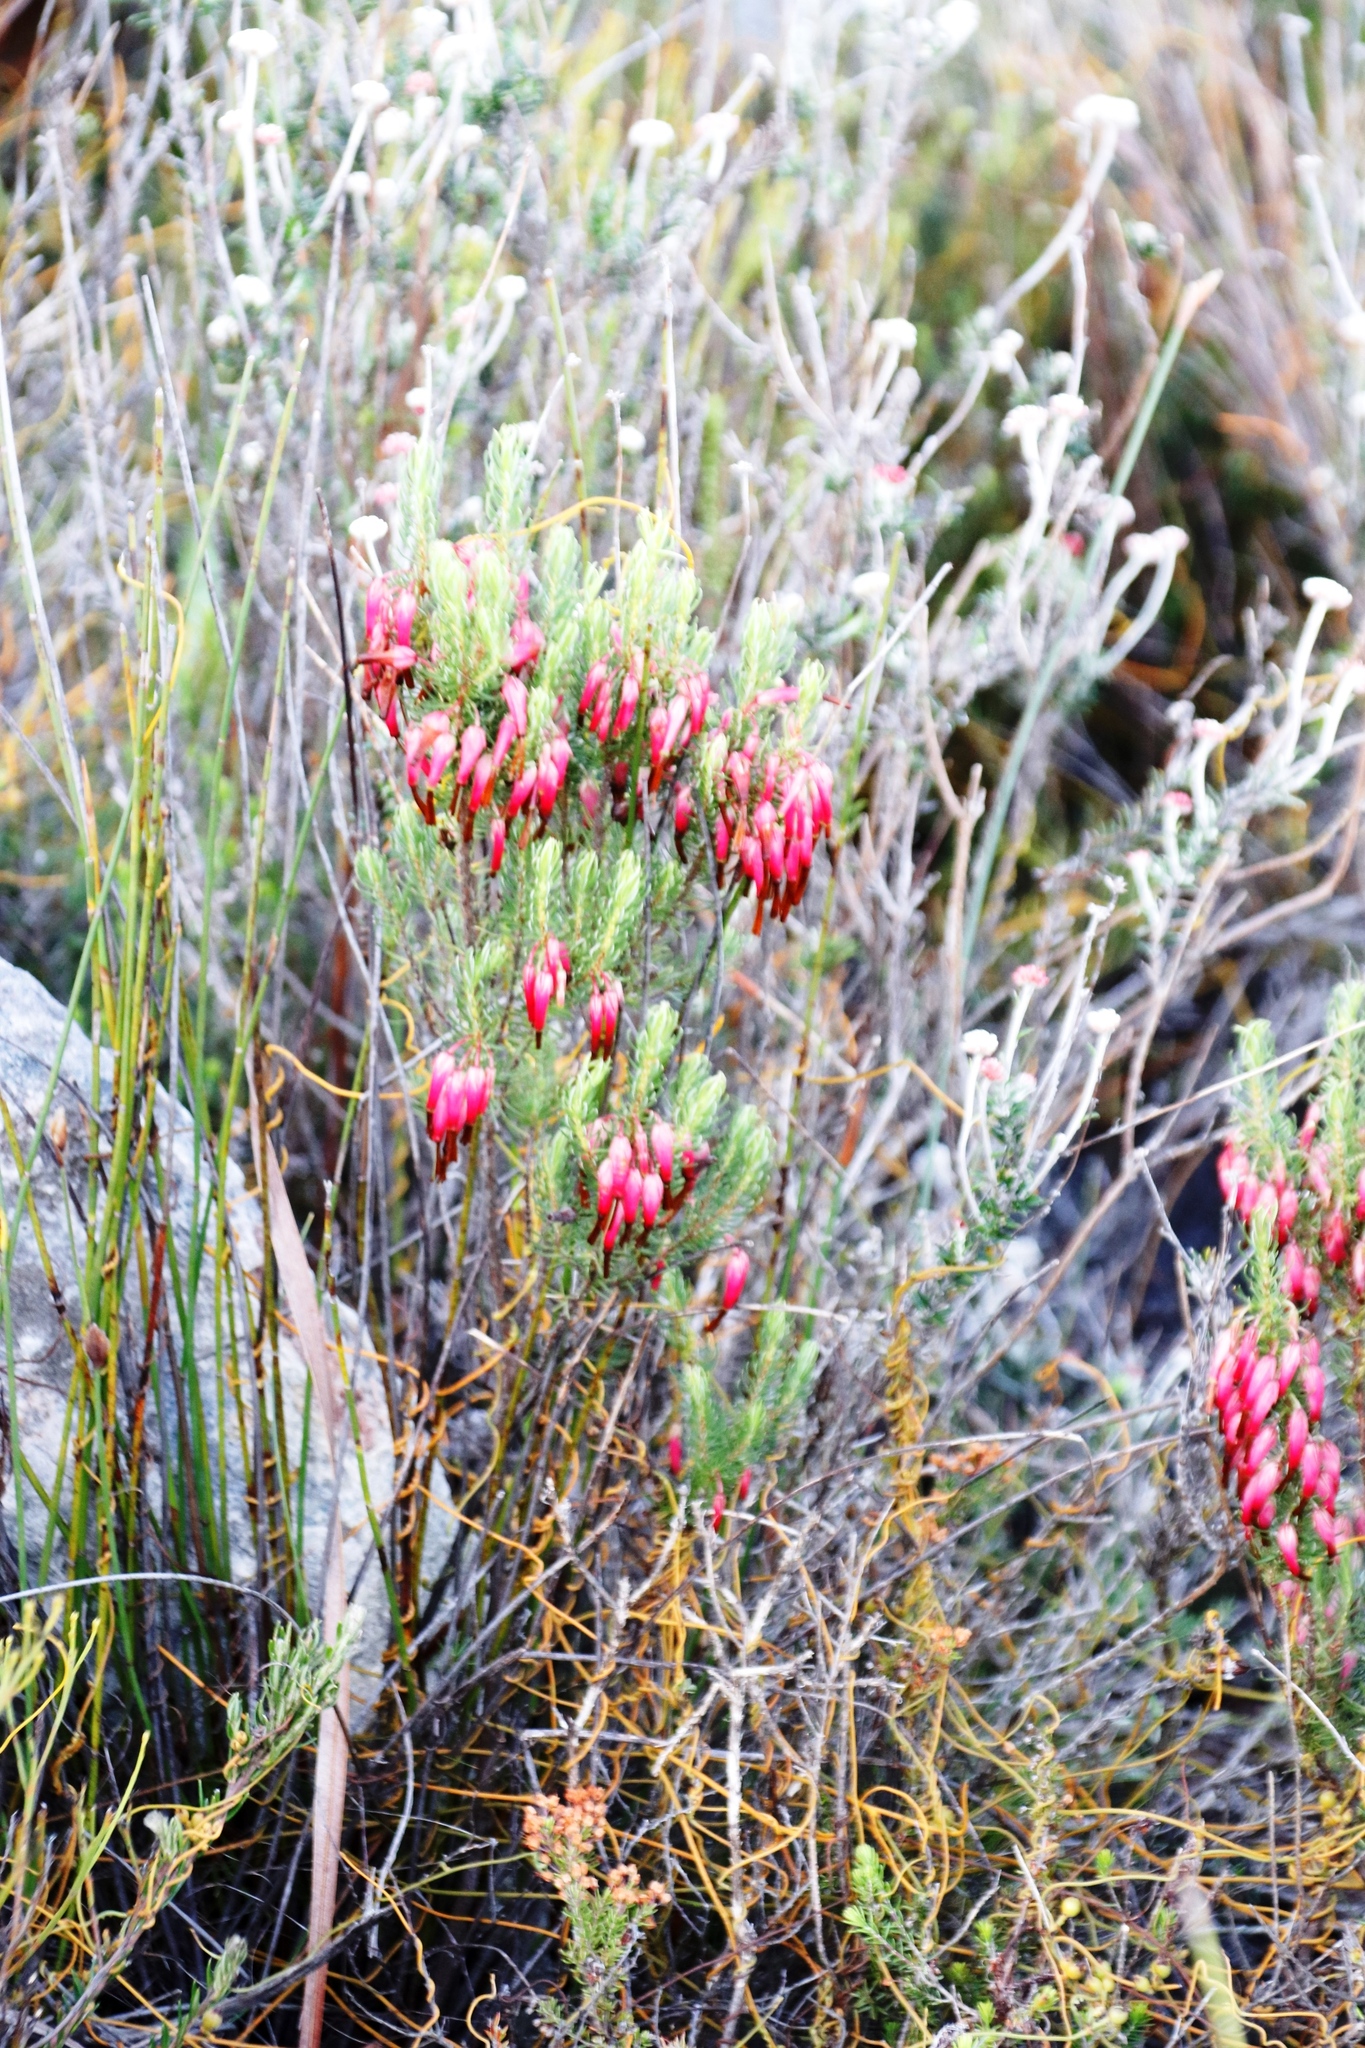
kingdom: Plantae
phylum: Tracheophyta
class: Magnoliopsida
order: Ericales
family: Ericaceae
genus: Erica
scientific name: Erica plukenetii
